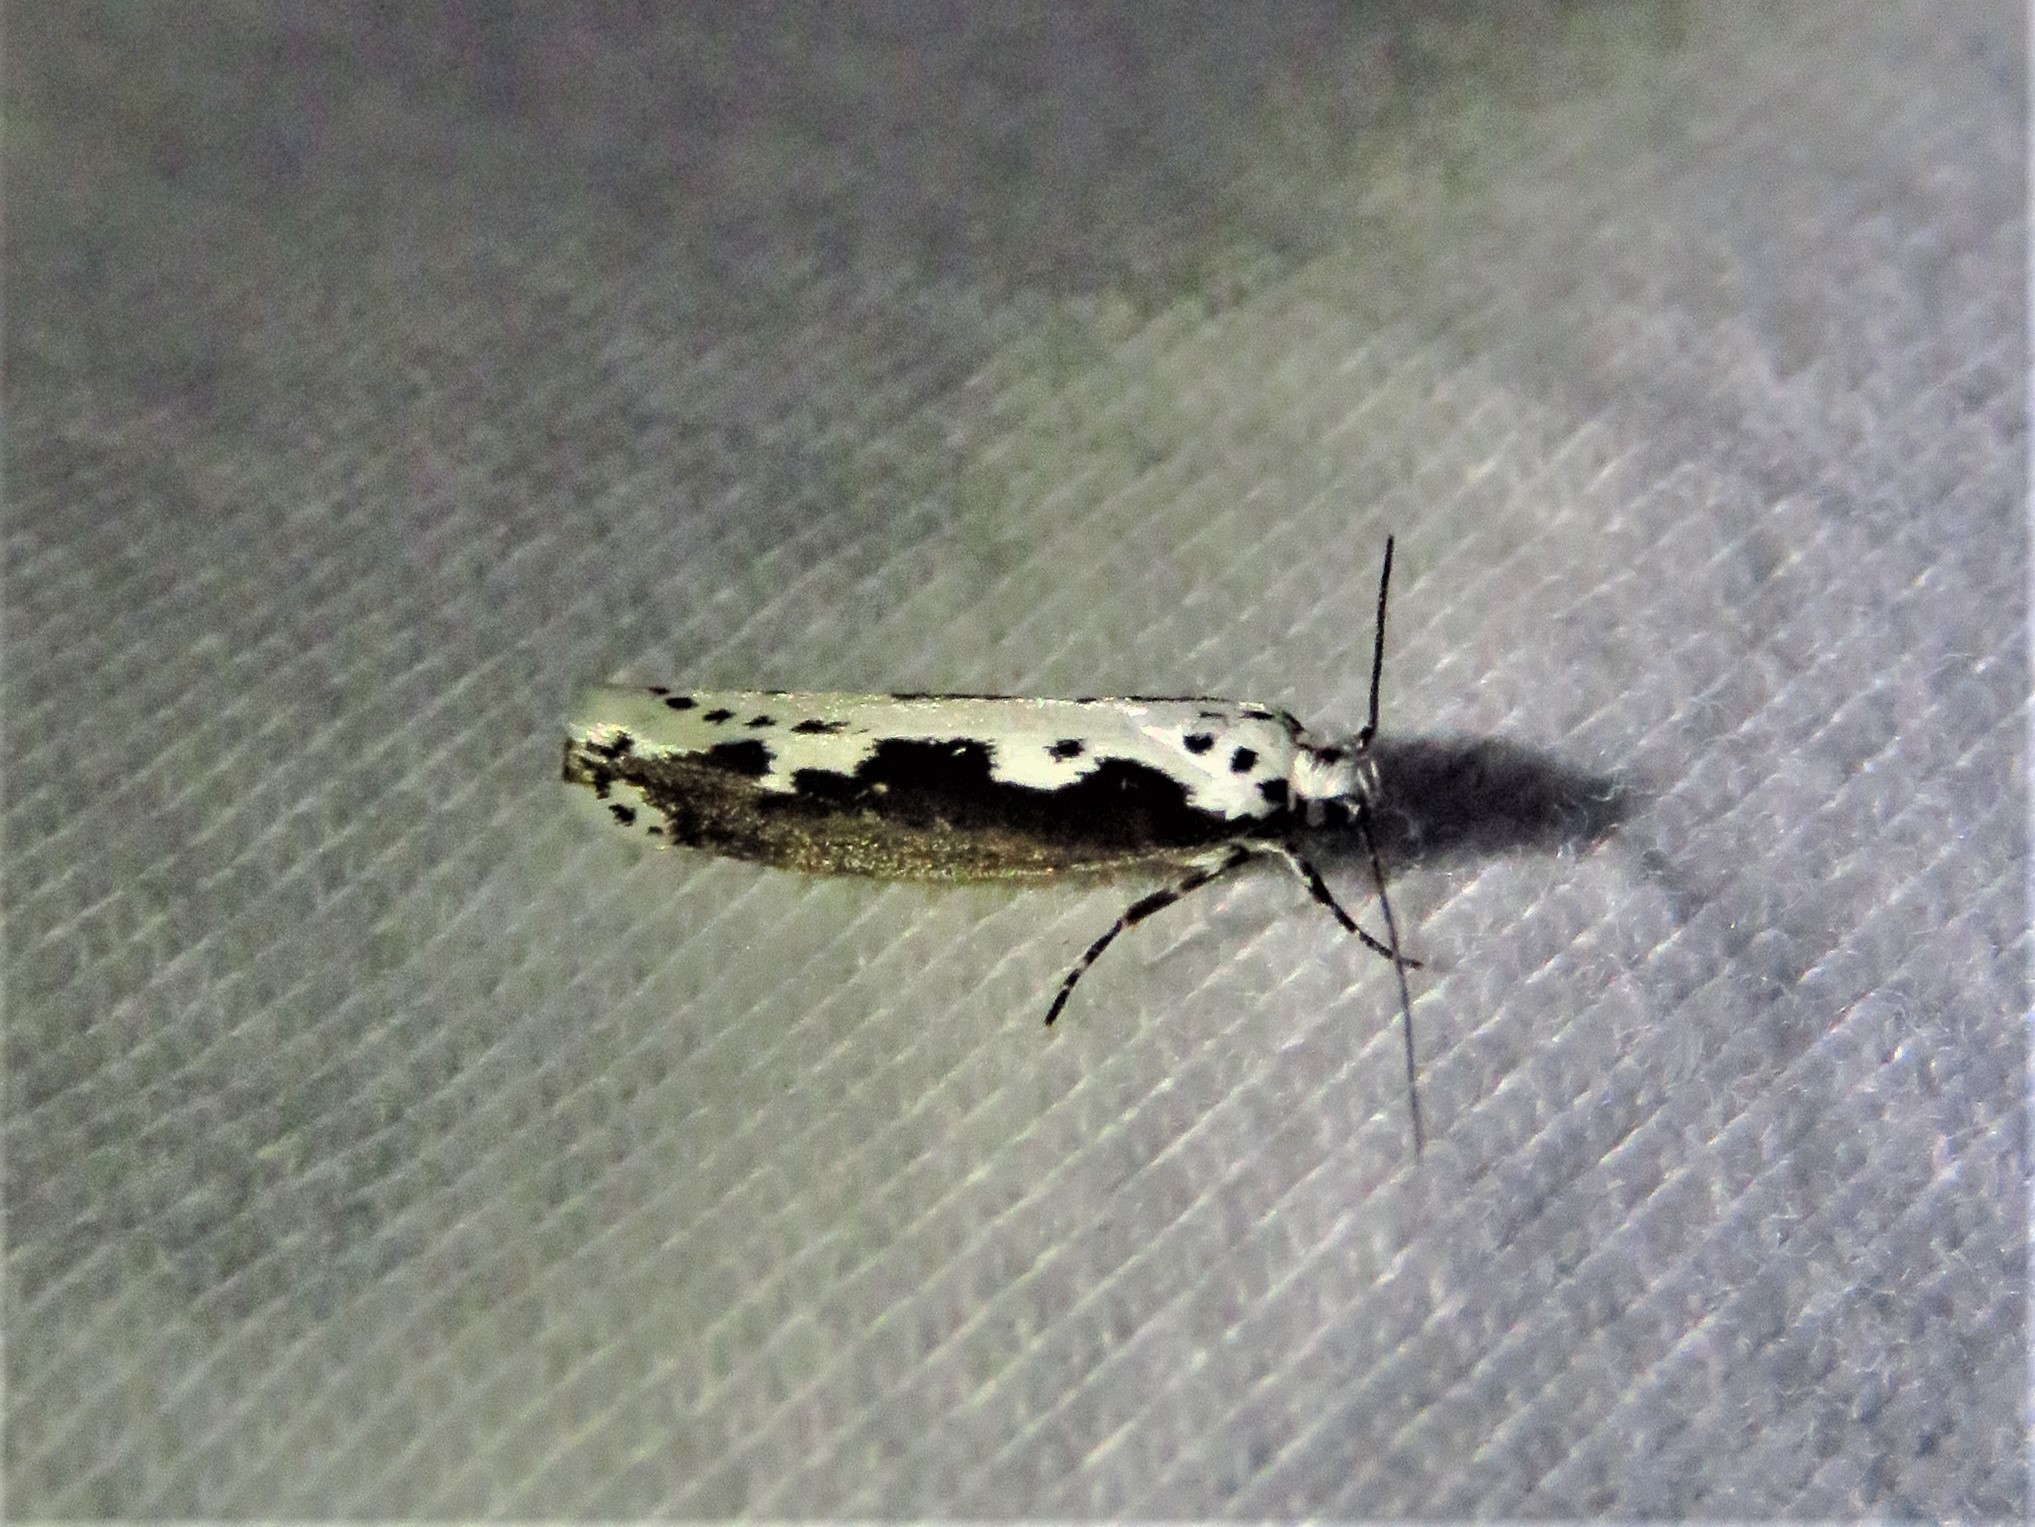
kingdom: Animalia
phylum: Arthropoda
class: Insecta
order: Lepidoptera
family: Ethmiidae
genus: Ethmia
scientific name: Ethmia semilugens
